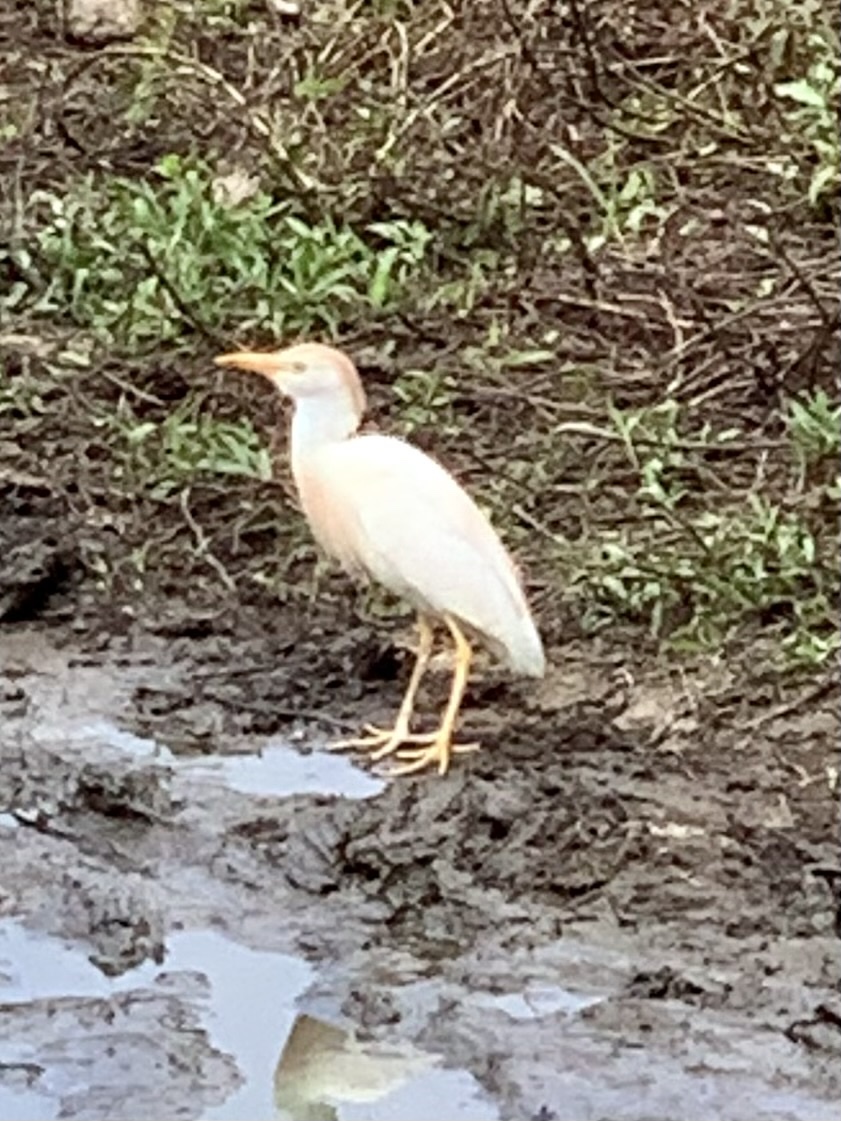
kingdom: Animalia
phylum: Chordata
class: Aves
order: Pelecaniformes
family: Ardeidae
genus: Bubulcus
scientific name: Bubulcus ibis
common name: Cattle egret
